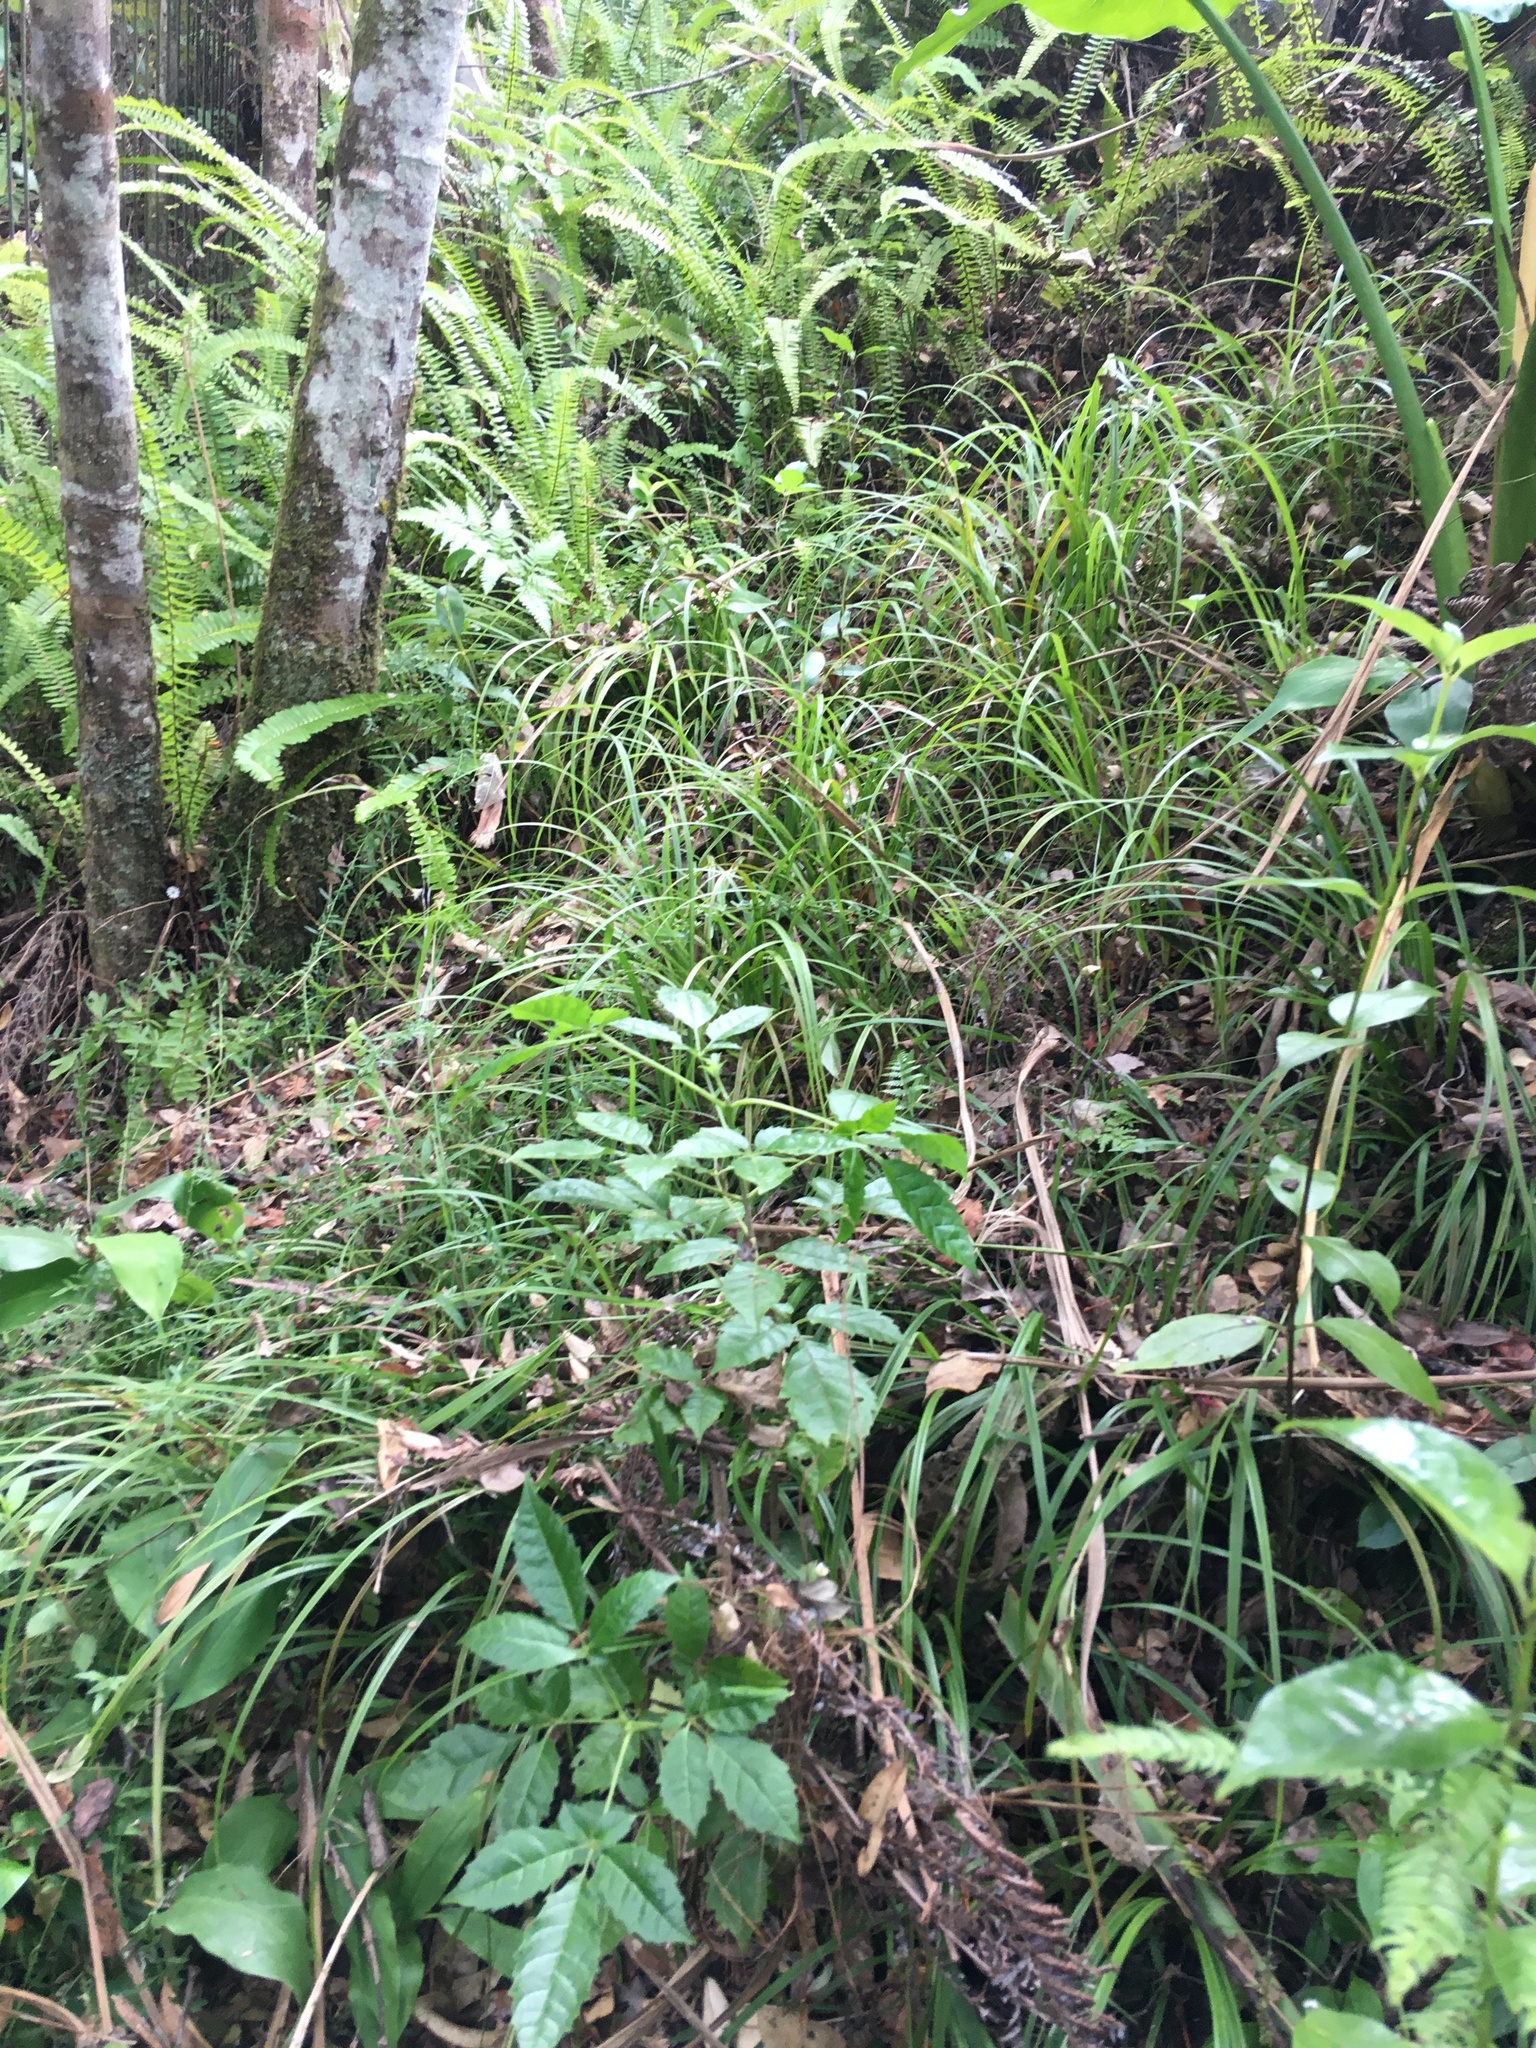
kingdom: Plantae
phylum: Tracheophyta
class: Magnoliopsida
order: Lamiales
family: Lamiaceae
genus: Vitex
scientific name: Vitex lucens
